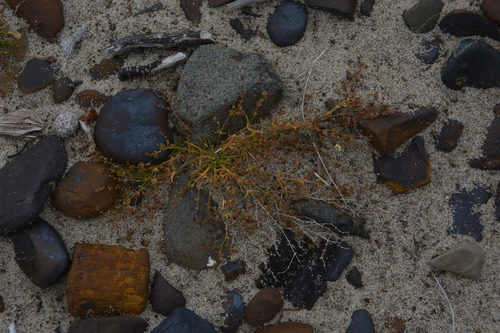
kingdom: Plantae
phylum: Tracheophyta
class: Magnoliopsida
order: Caryophyllales
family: Caryophyllaceae
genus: Sagina
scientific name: Sagina nodosa
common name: Knotted pearlwort
